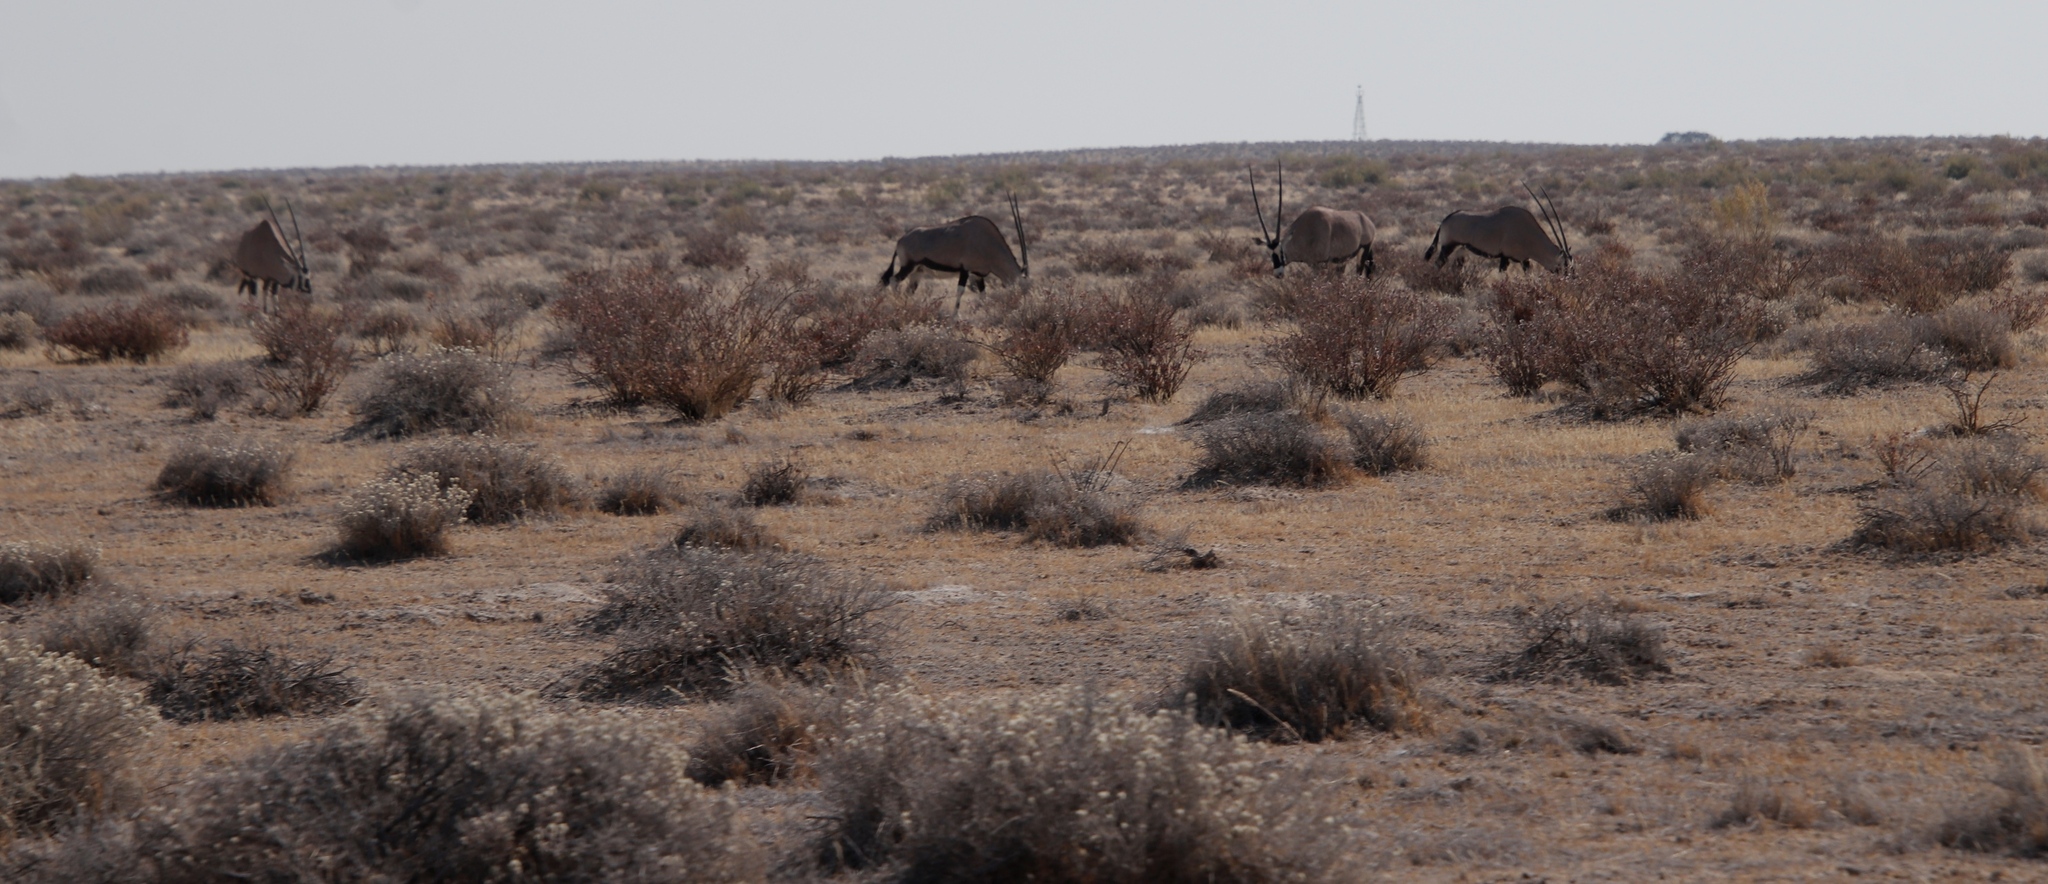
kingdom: Animalia
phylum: Chordata
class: Mammalia
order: Artiodactyla
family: Bovidae
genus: Oryx
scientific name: Oryx gazella
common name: Gemsbok
